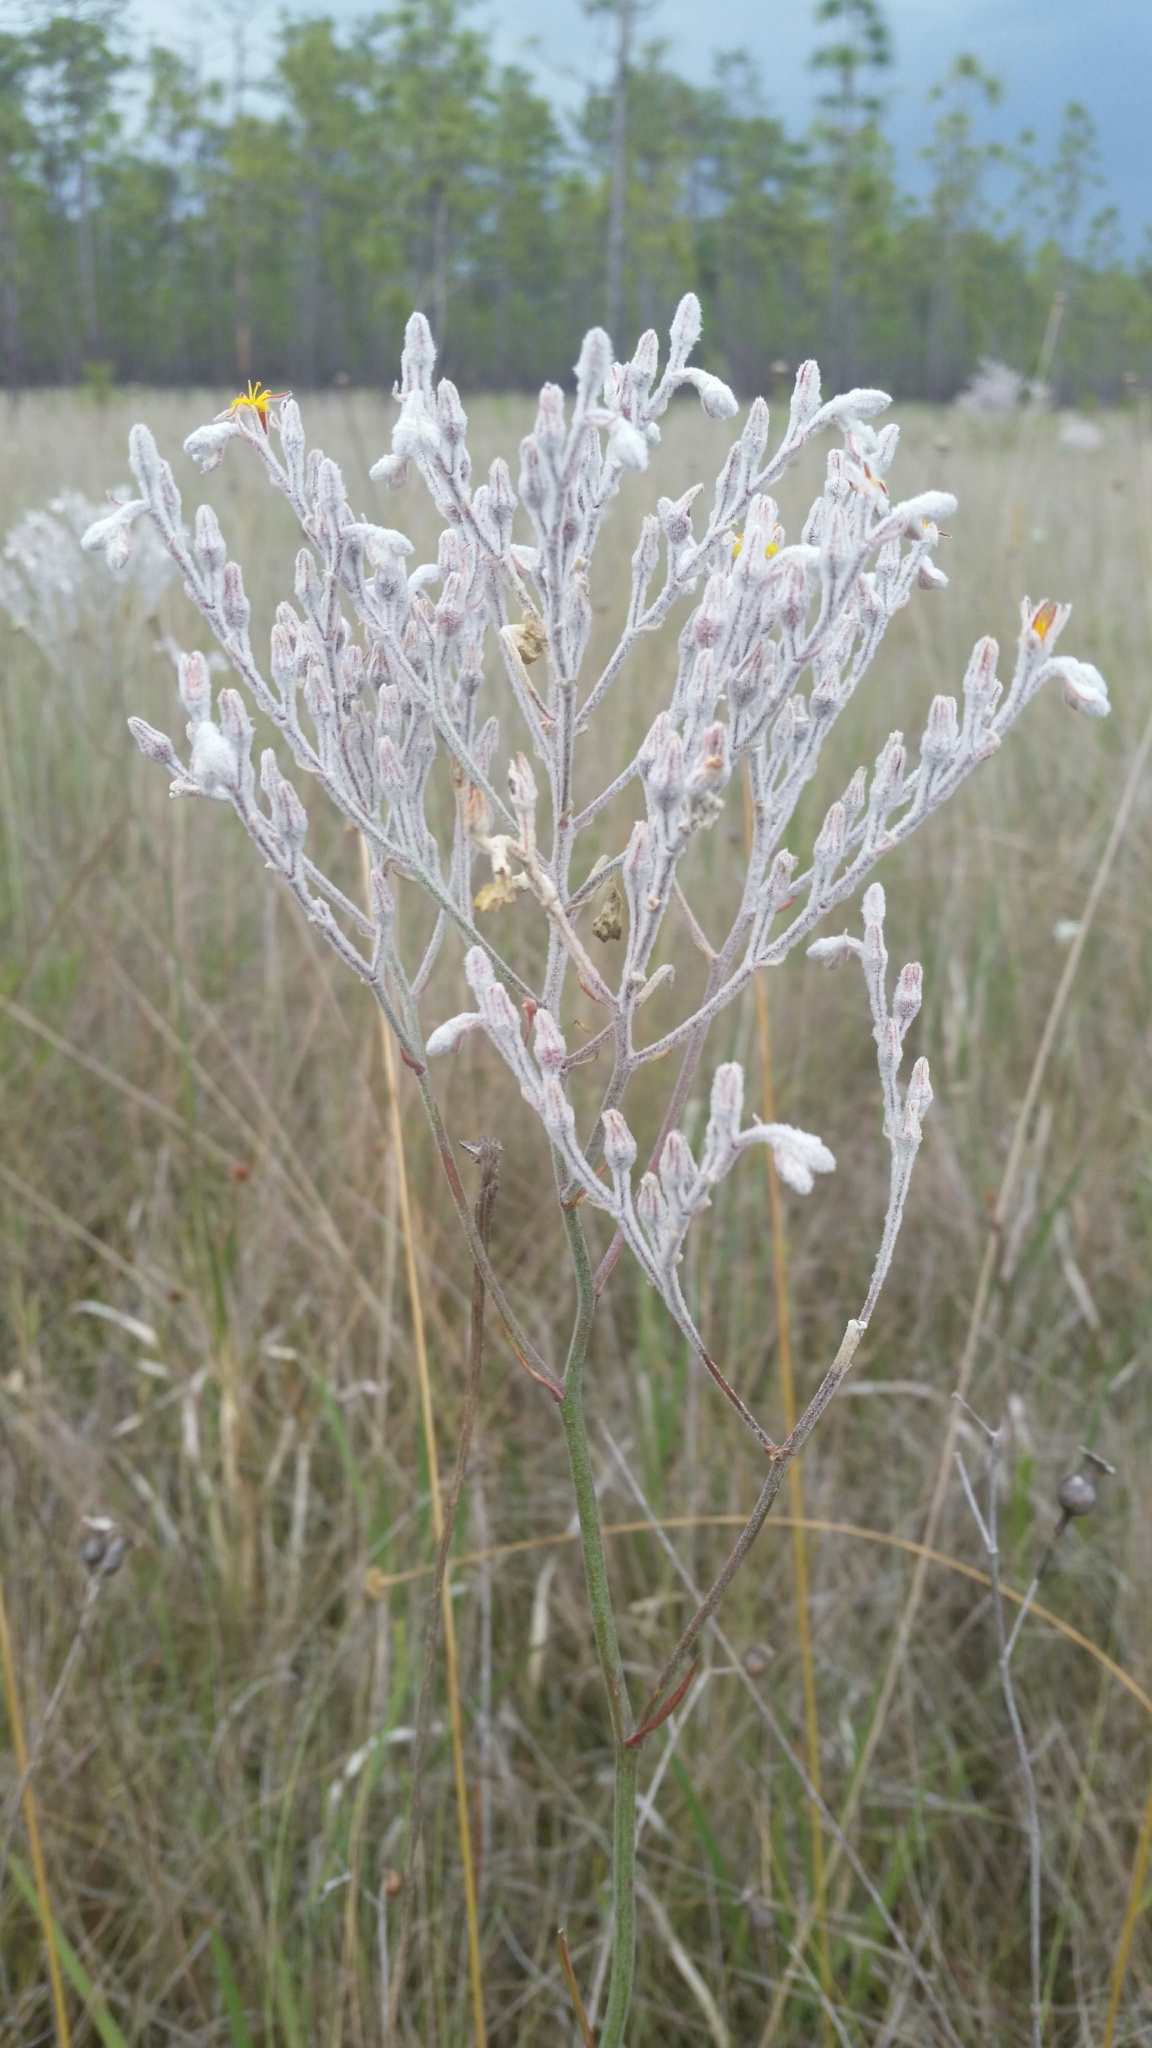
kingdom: Plantae
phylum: Tracheophyta
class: Liliopsida
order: Dioscoreales
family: Nartheciaceae
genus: Lophiola
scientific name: Lophiola aurea
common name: Golden-crest
